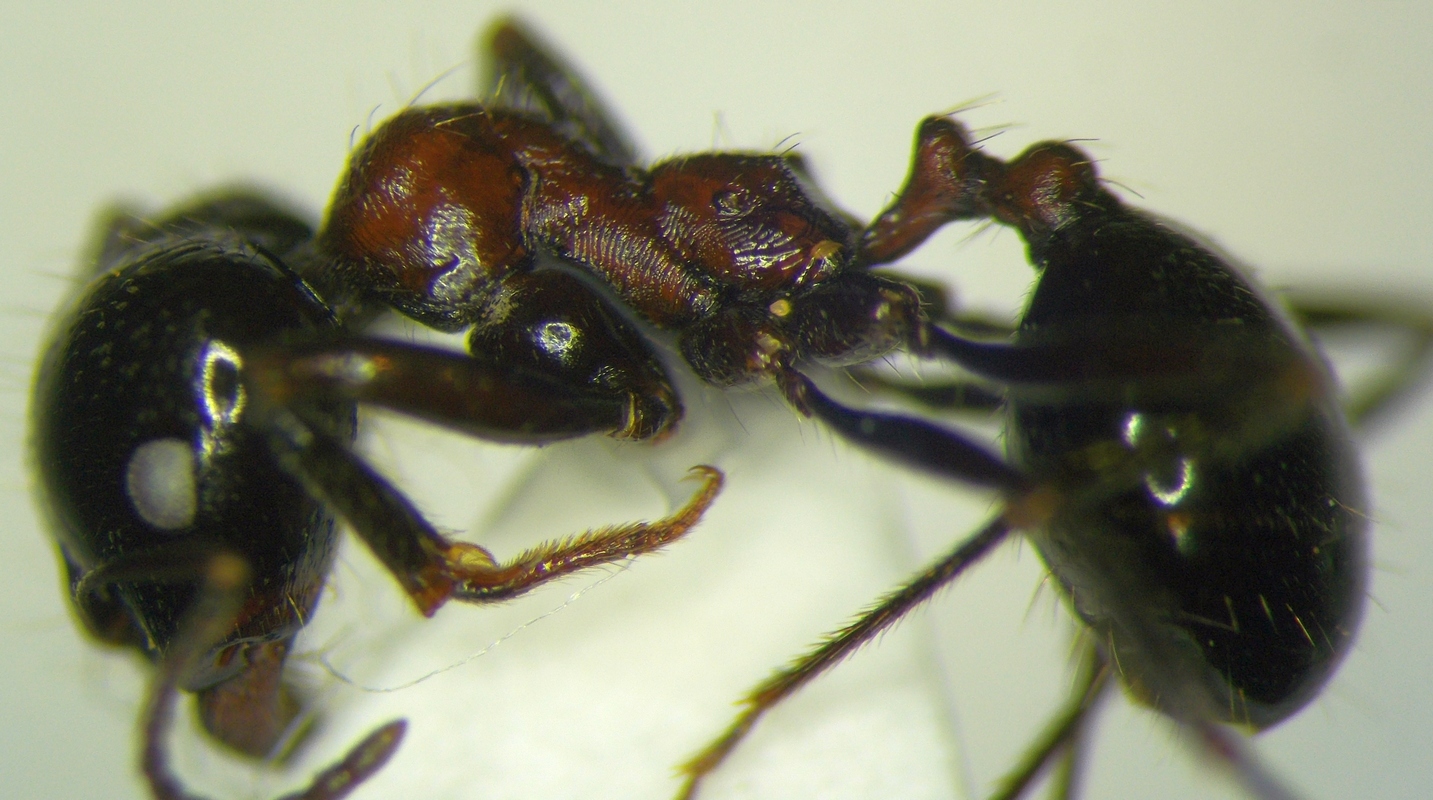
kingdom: Animalia
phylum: Arthropoda
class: Insecta
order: Hymenoptera
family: Formicidae
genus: Messor
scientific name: Messor denticulatus
